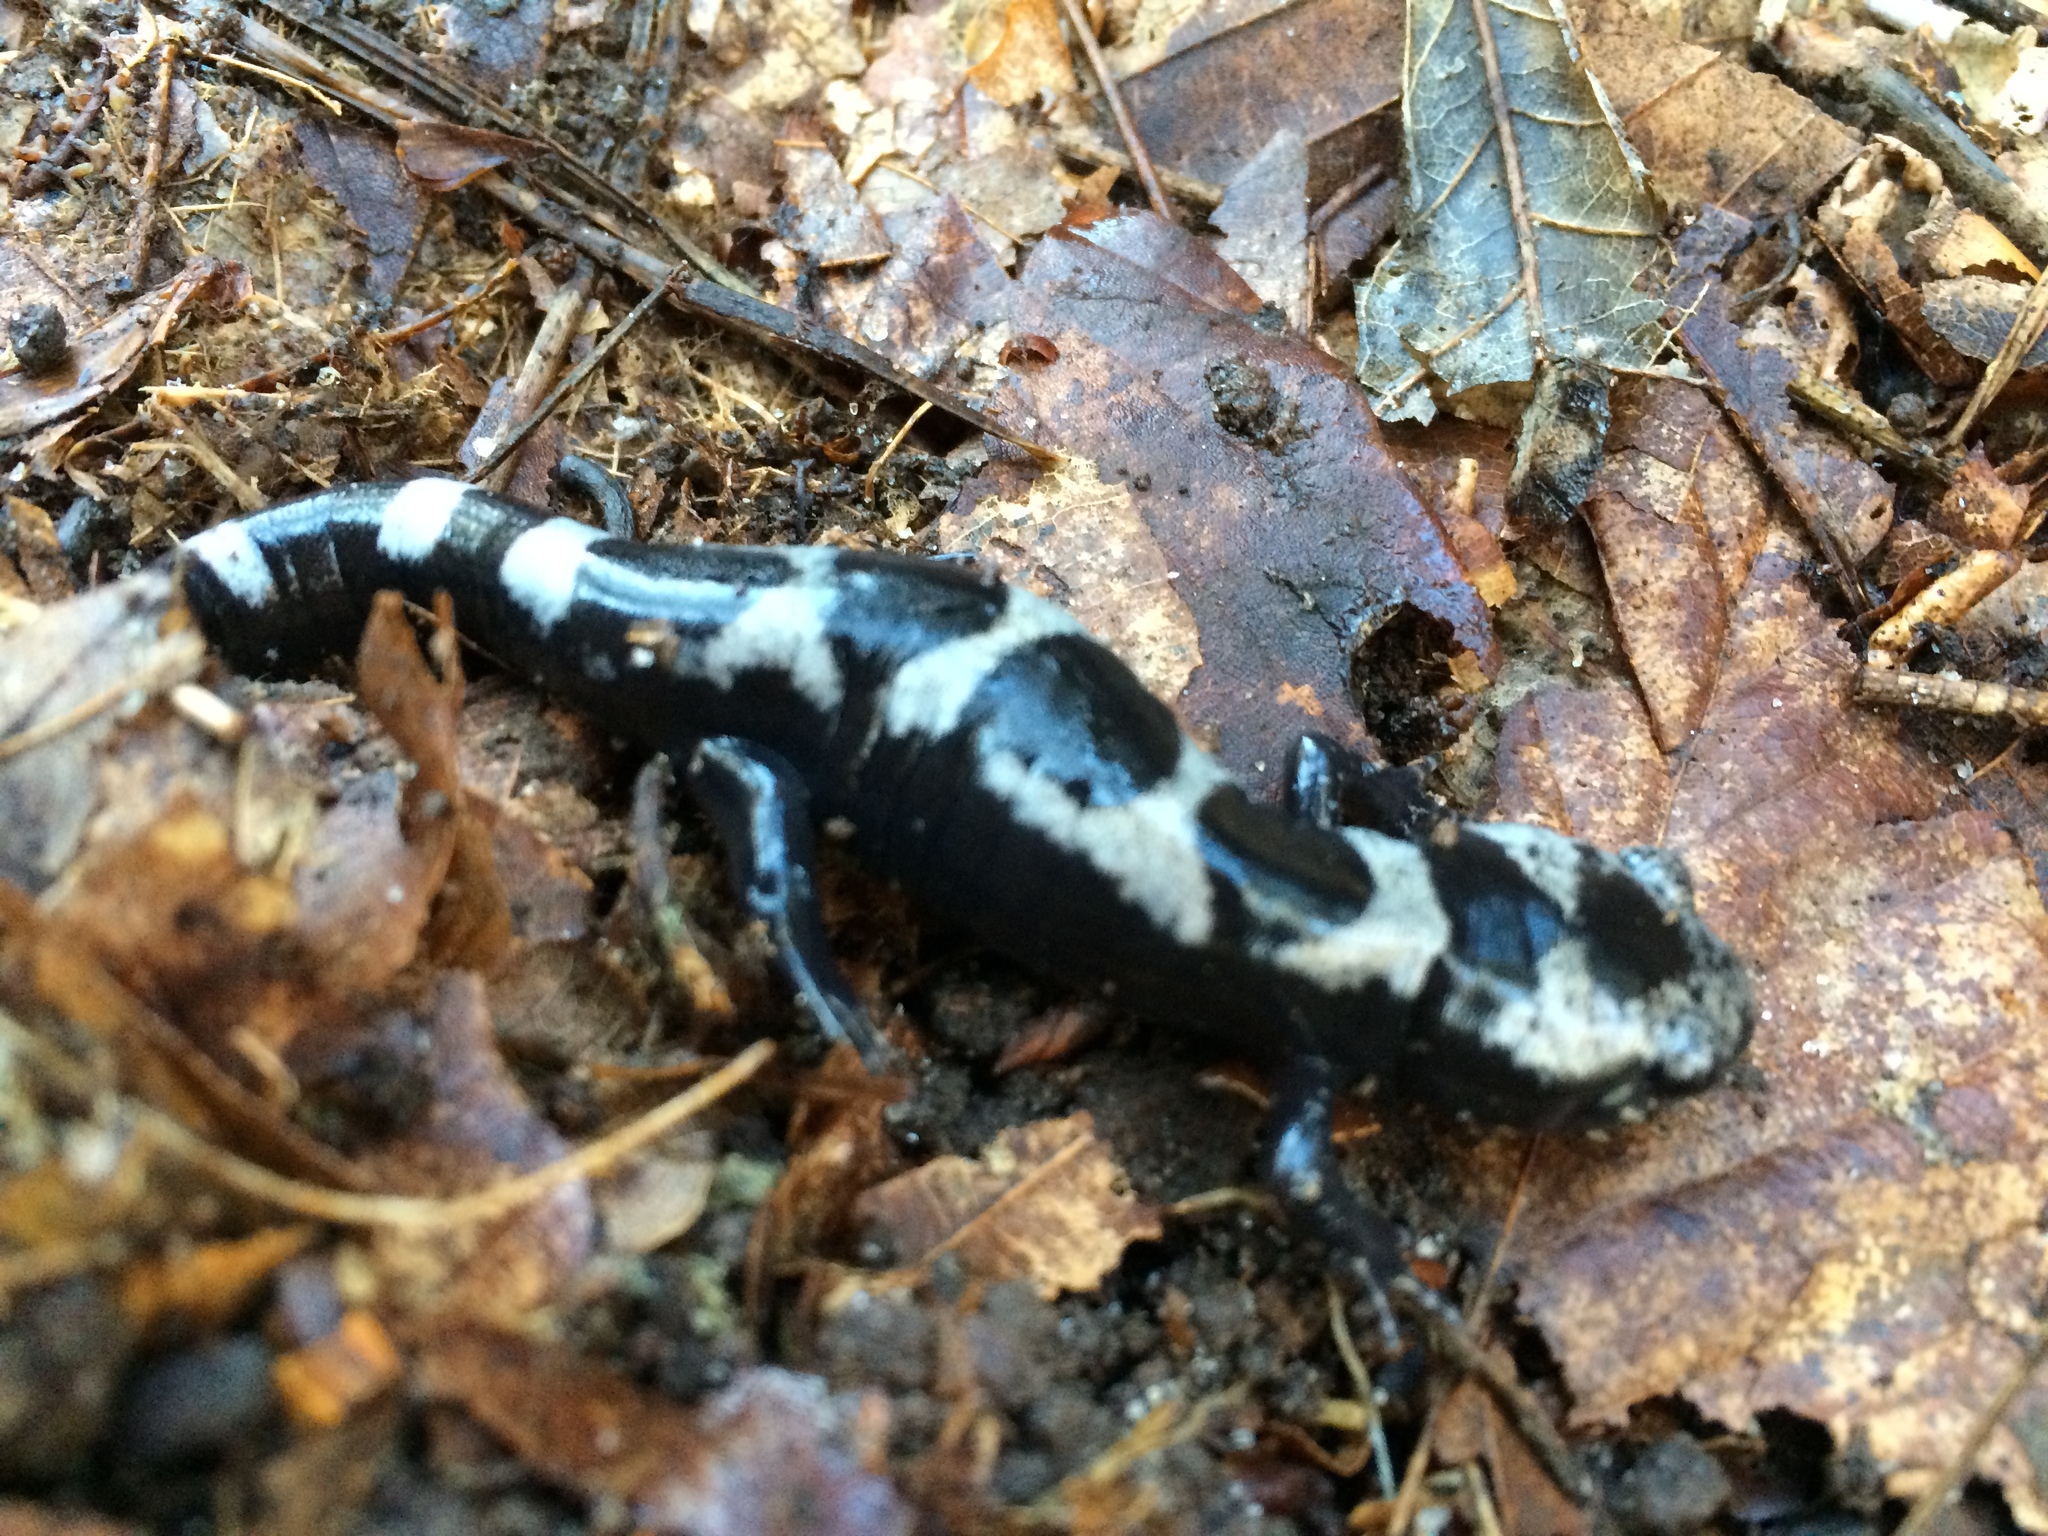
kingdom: Animalia
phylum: Chordata
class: Amphibia
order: Caudata
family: Ambystomatidae
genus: Ambystoma
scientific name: Ambystoma opacum
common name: Marbled salamander
